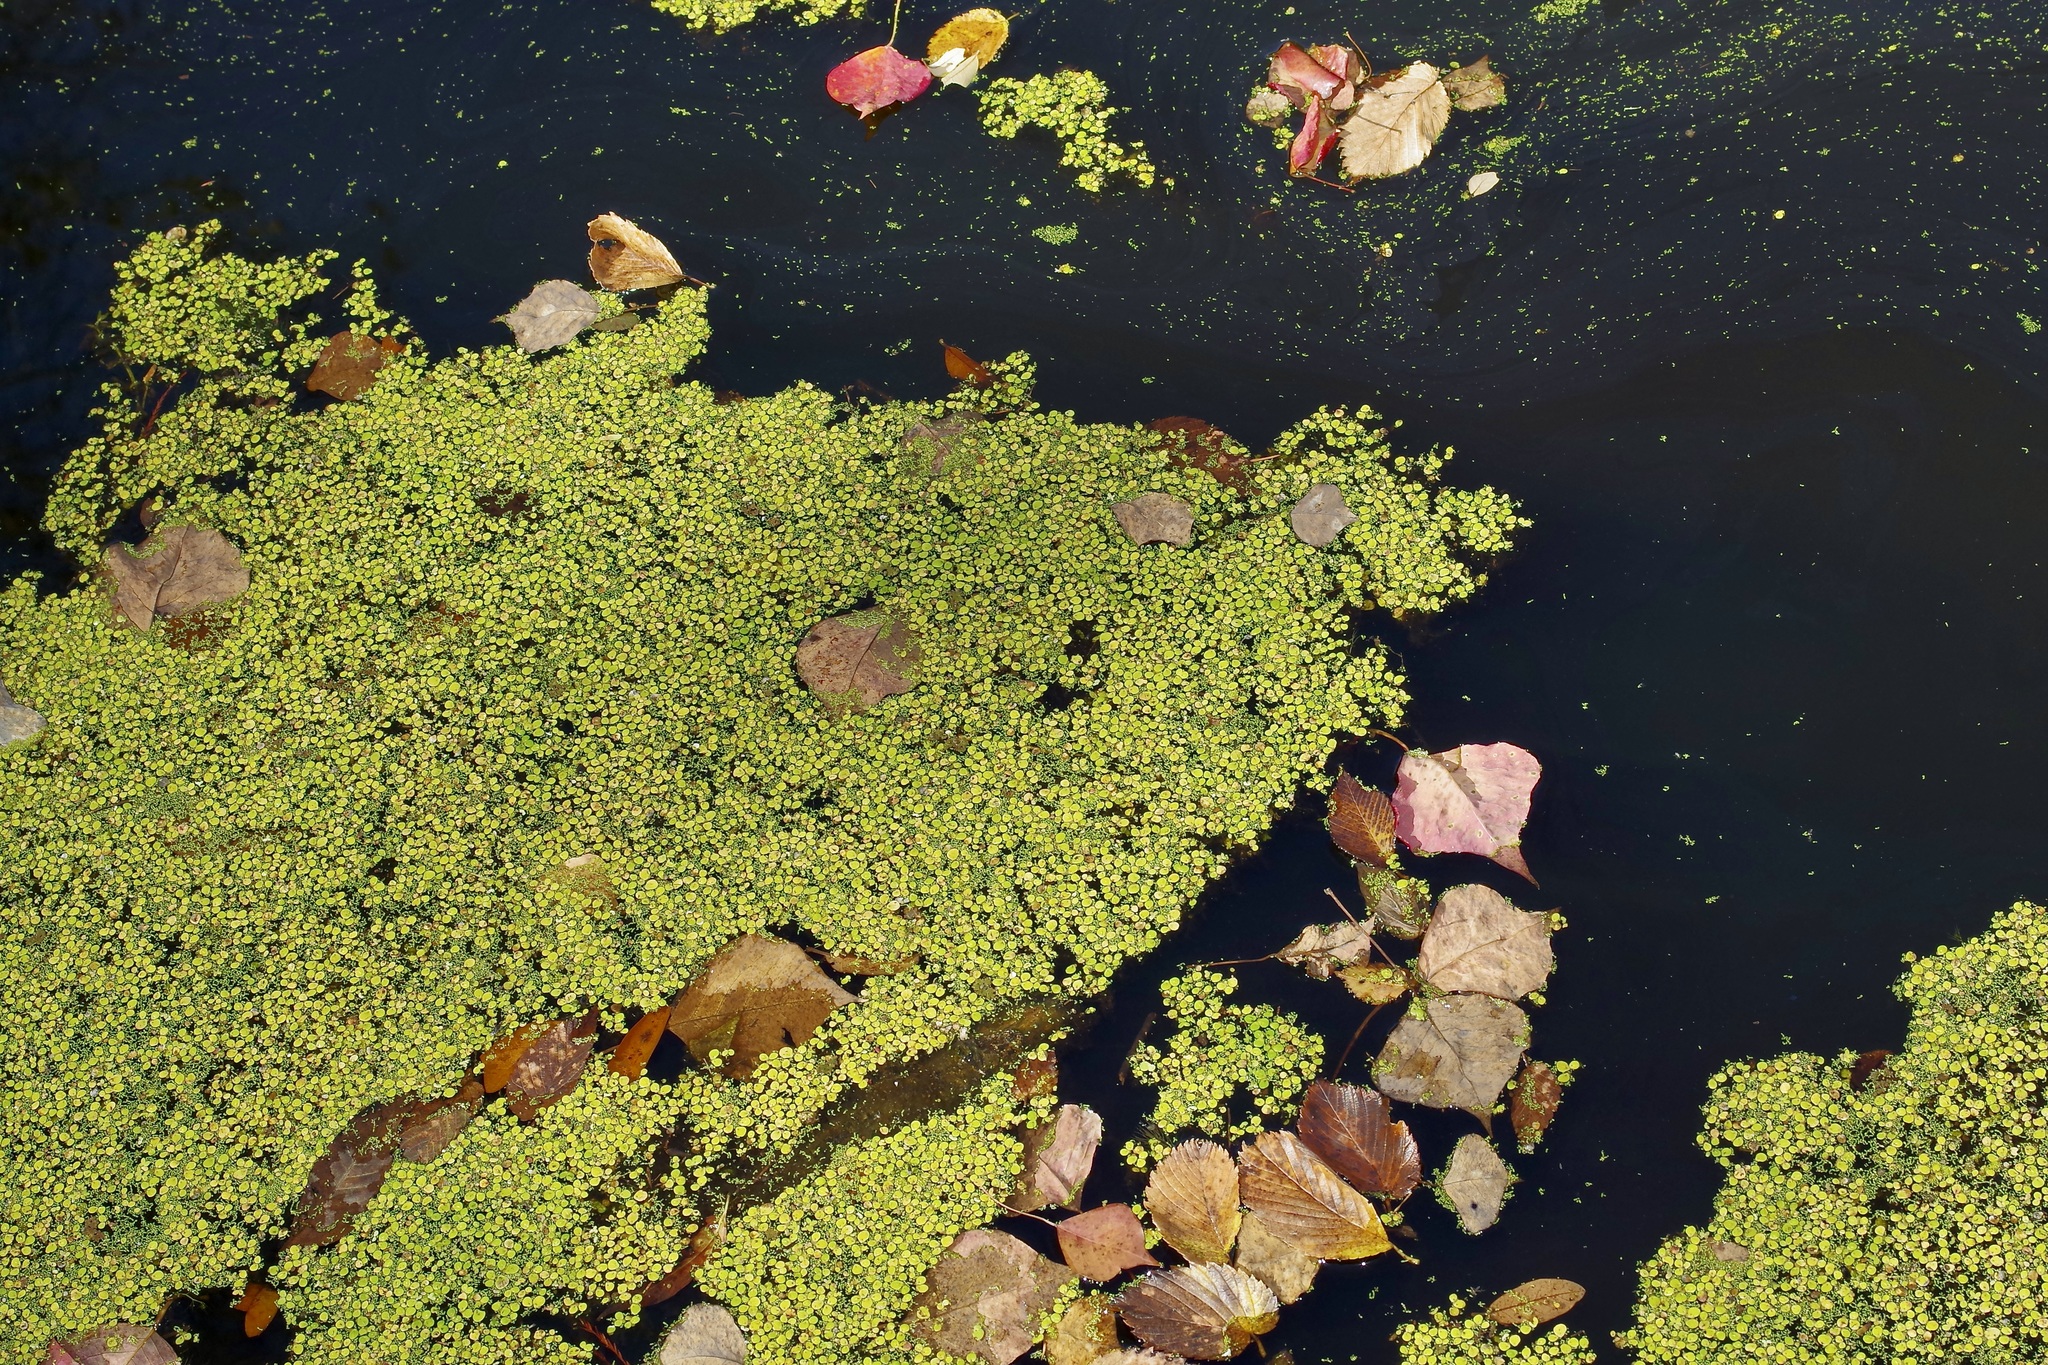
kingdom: Plantae
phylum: Tracheophyta
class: Liliopsida
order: Alismatales
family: Araceae
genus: Spirodela
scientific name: Spirodela polyrhiza
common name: Great duckweed
